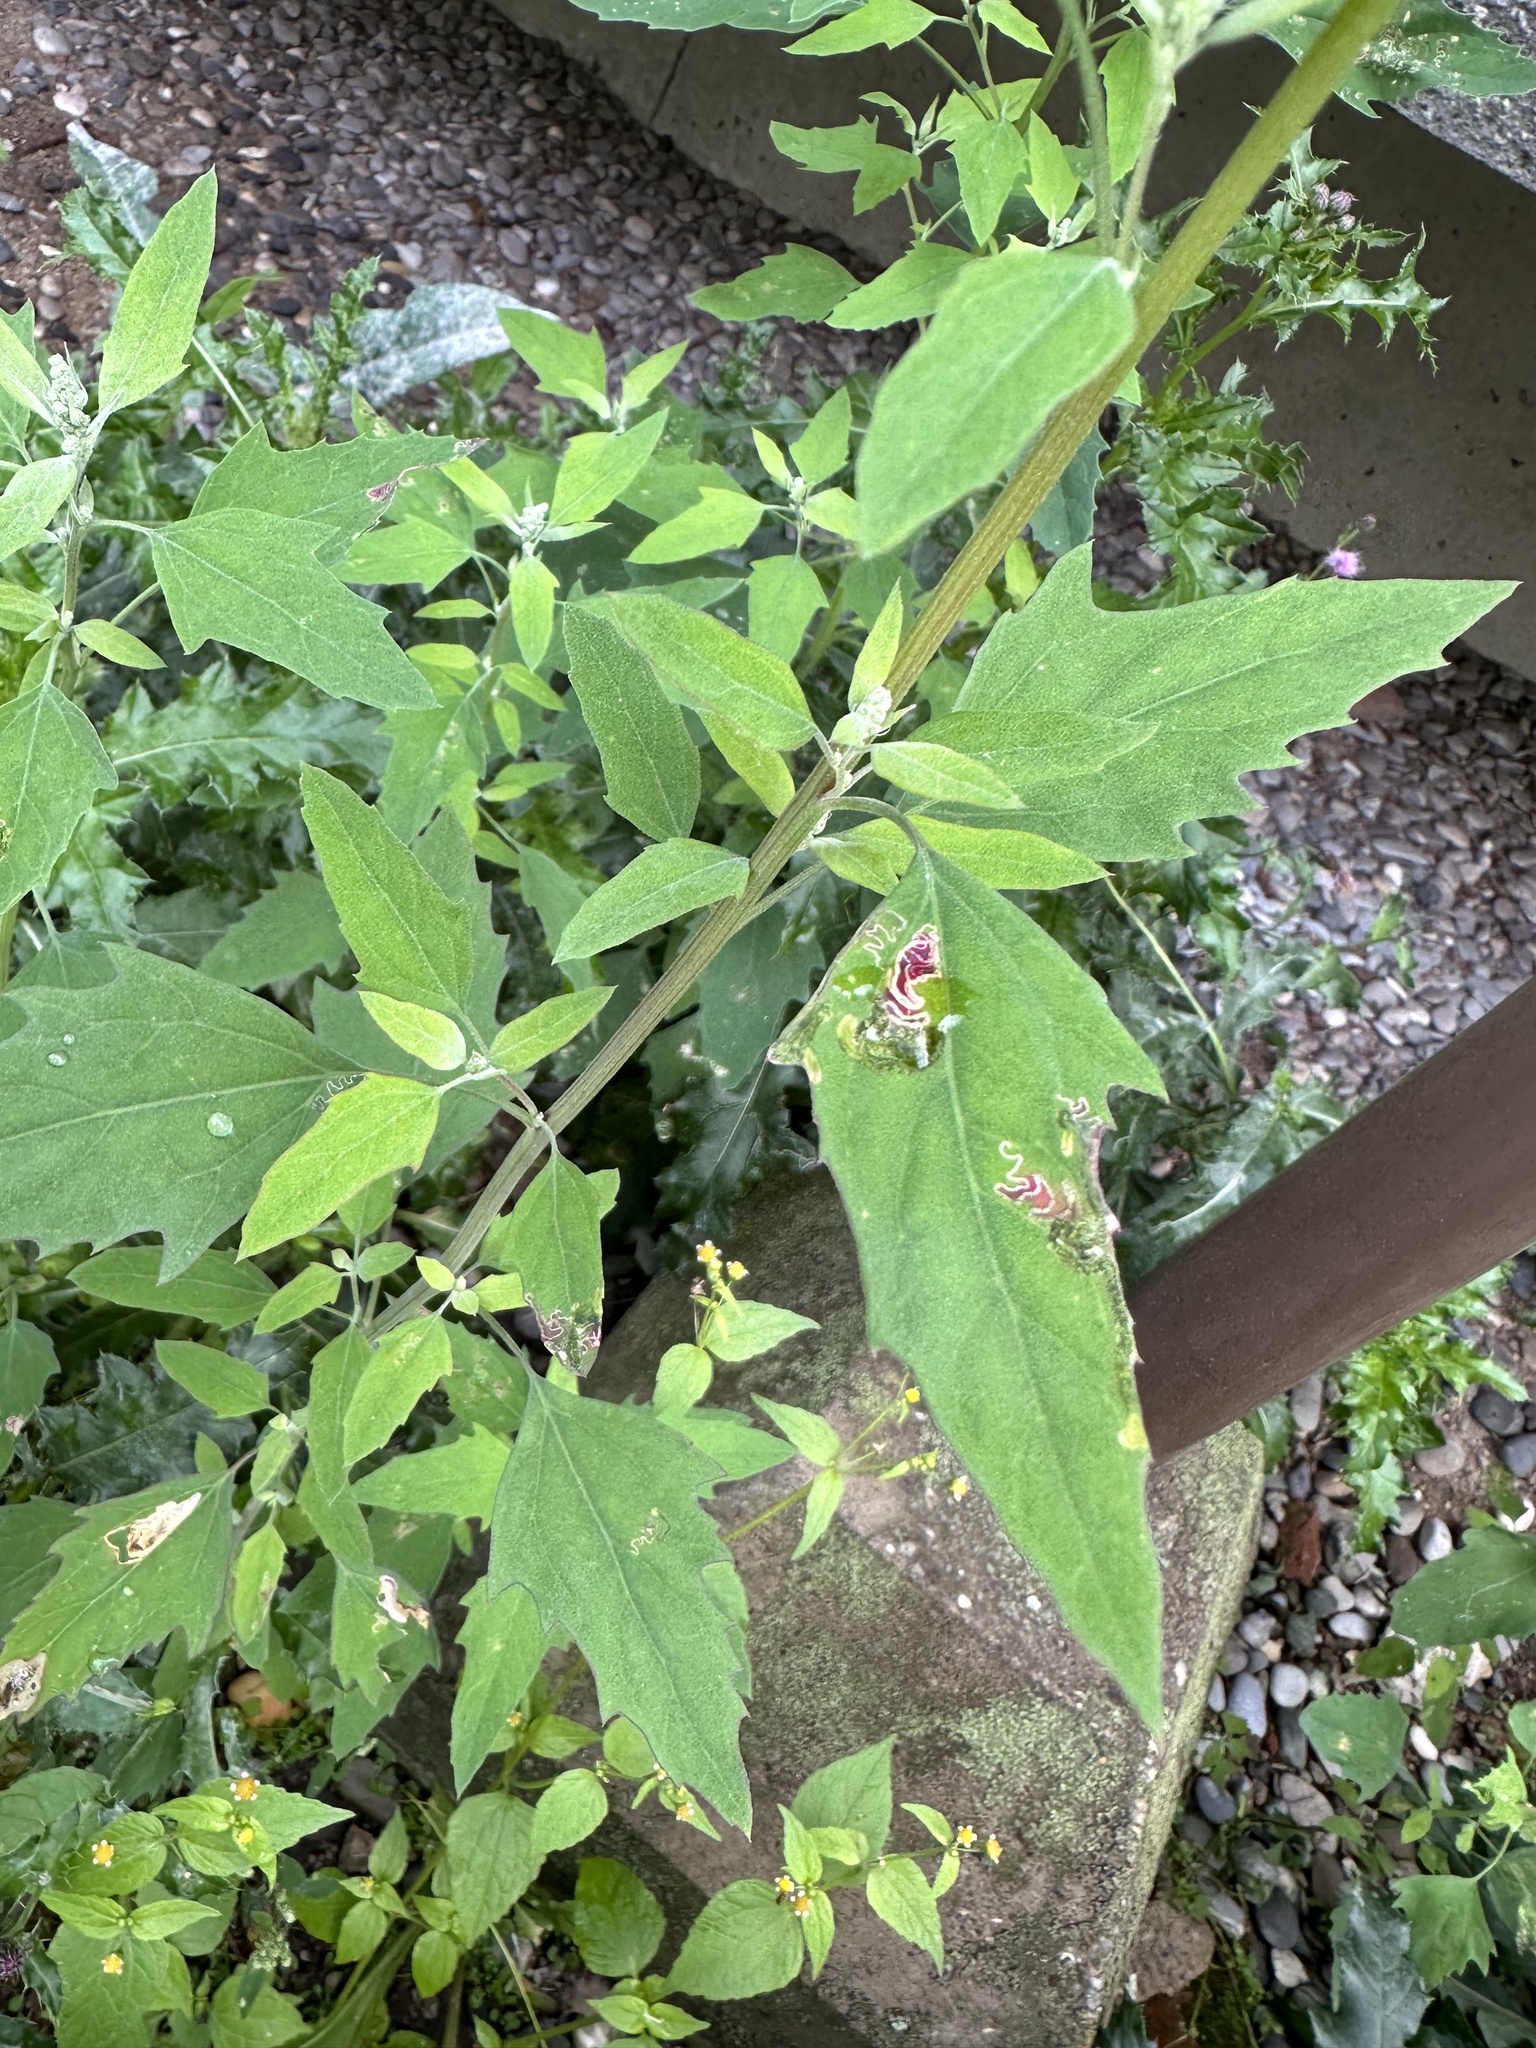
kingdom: Animalia
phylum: Arthropoda
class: Insecta
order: Lepidoptera
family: Gelechiidae
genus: Chrysoesthia
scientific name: Chrysoesthia drurella
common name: Flame neb
